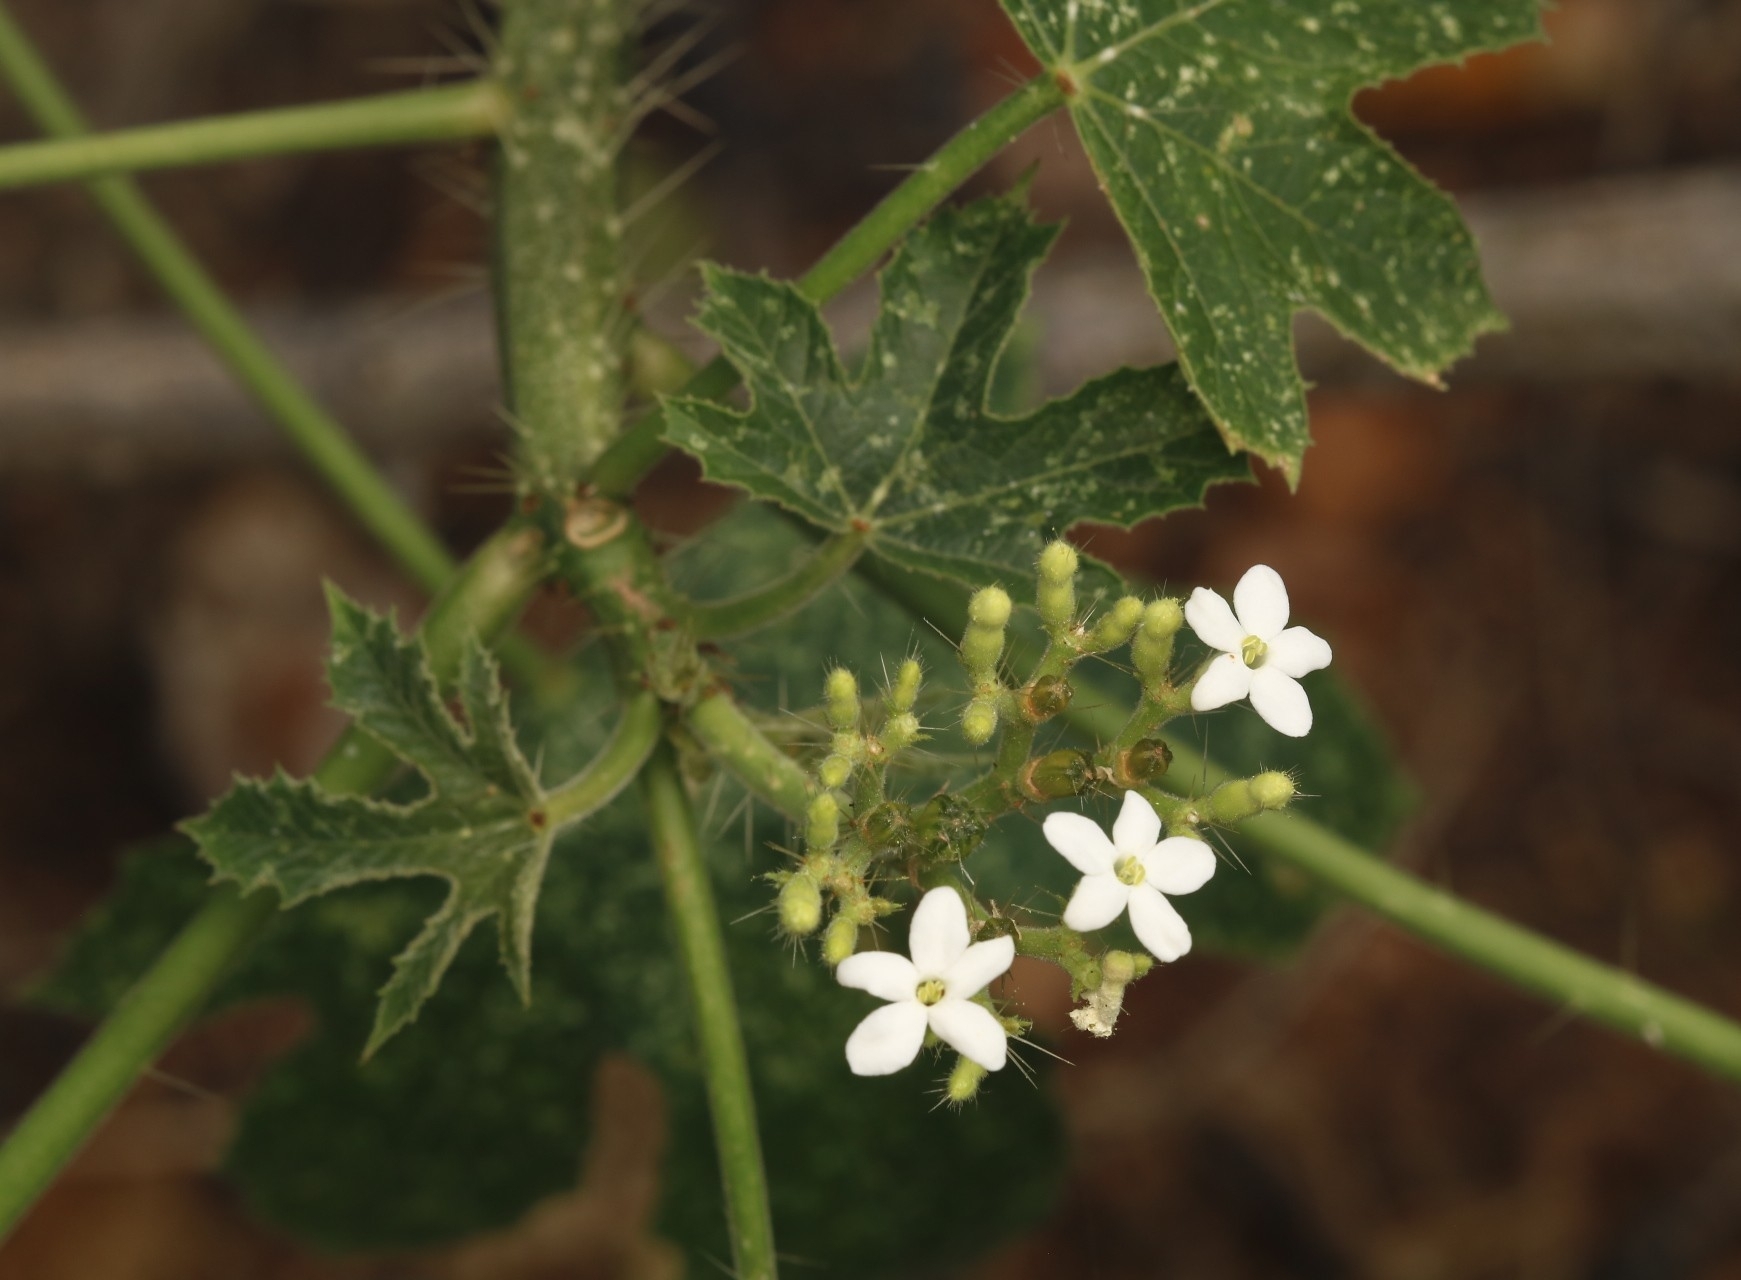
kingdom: Plantae
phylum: Tracheophyta
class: Magnoliopsida
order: Malpighiales
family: Euphorbiaceae
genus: Cnidoscolus
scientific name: Cnidoscolus urens
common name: Bull-nettle
